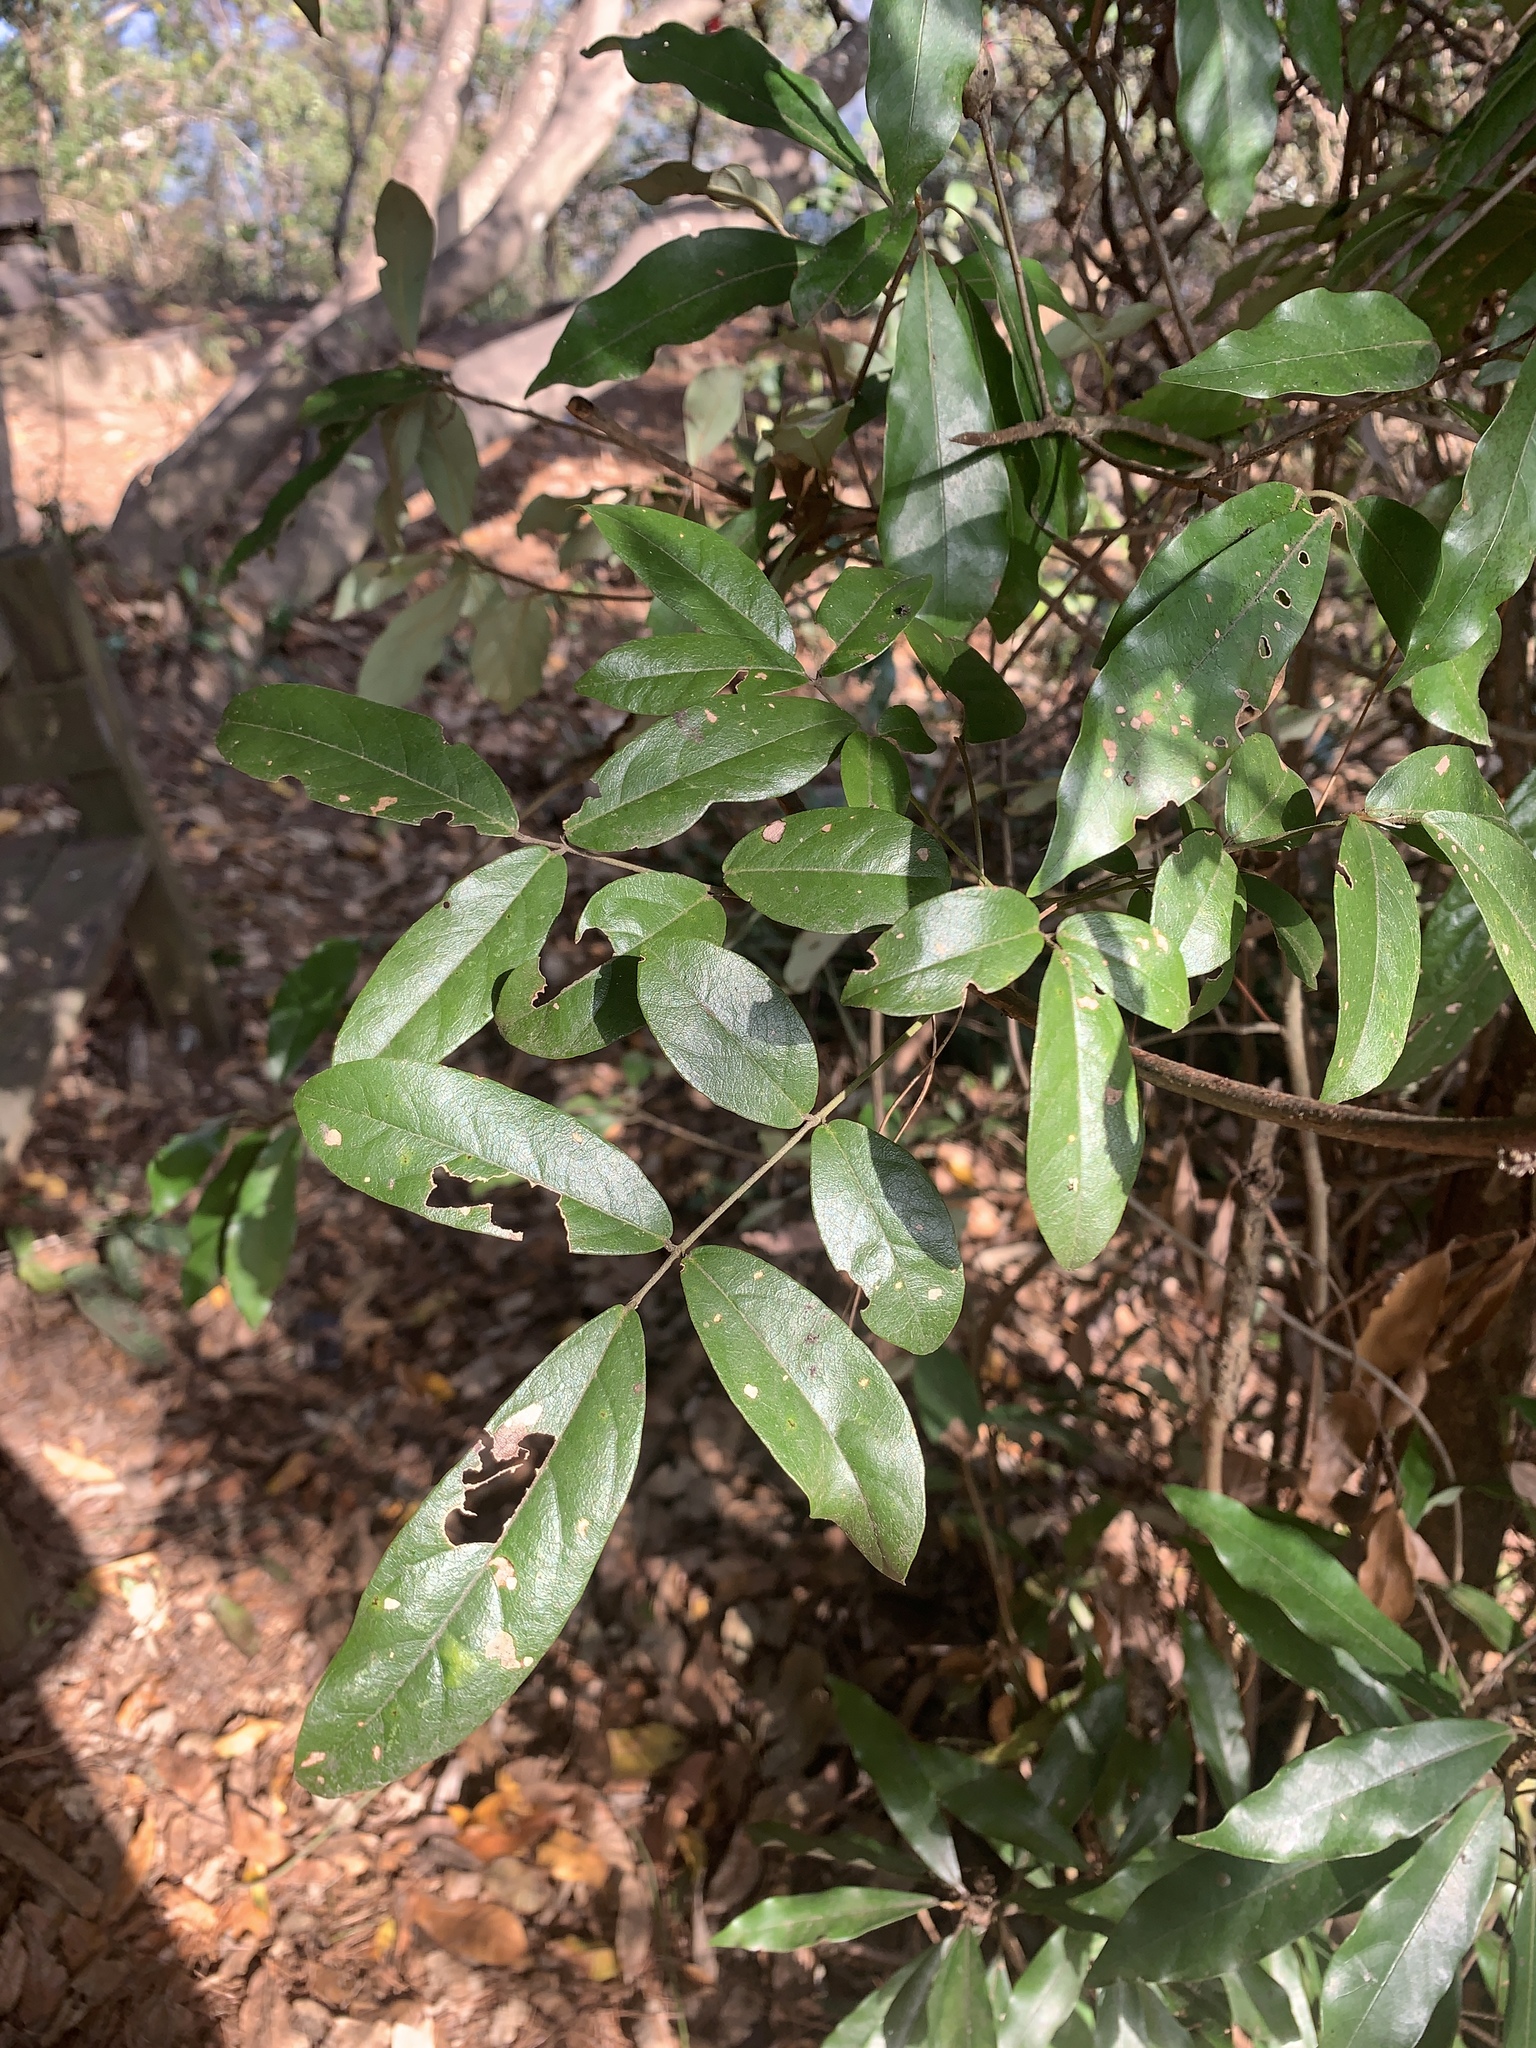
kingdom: Plantae
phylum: Tracheophyta
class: Magnoliopsida
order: Fabales
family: Fabaceae
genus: Callerya
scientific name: Callerya nitida
